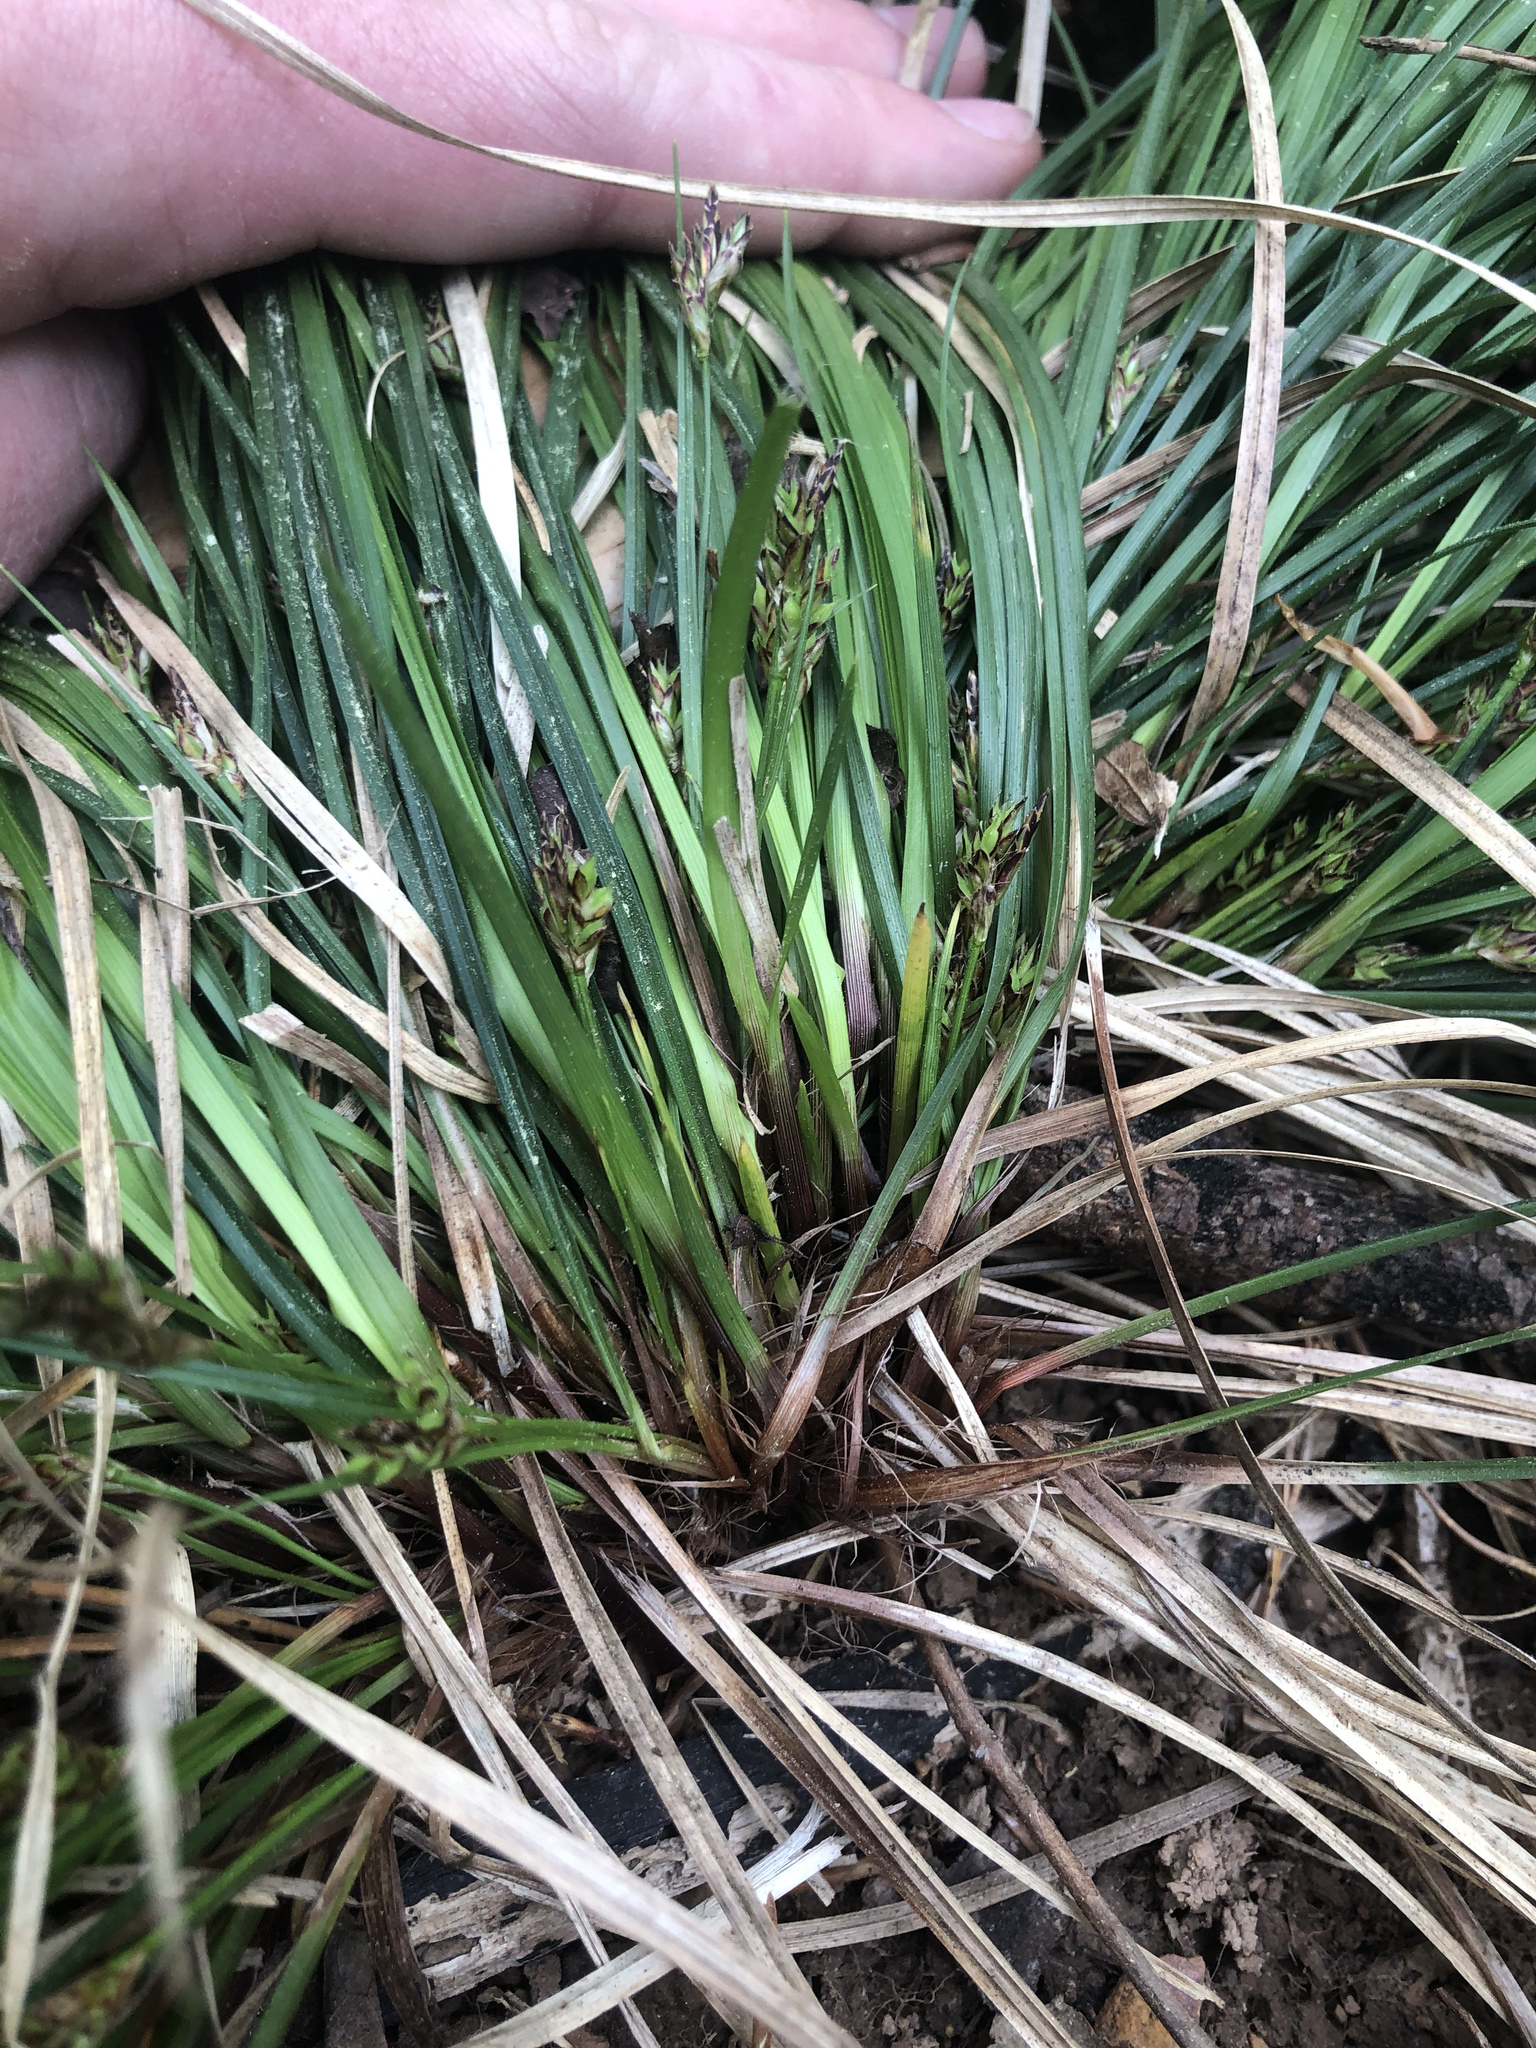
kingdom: Plantae
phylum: Tracheophyta
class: Liliopsida
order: Poales
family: Cyperaceae
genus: Carex
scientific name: Carex nigromarginata
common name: Black-edged sedge
